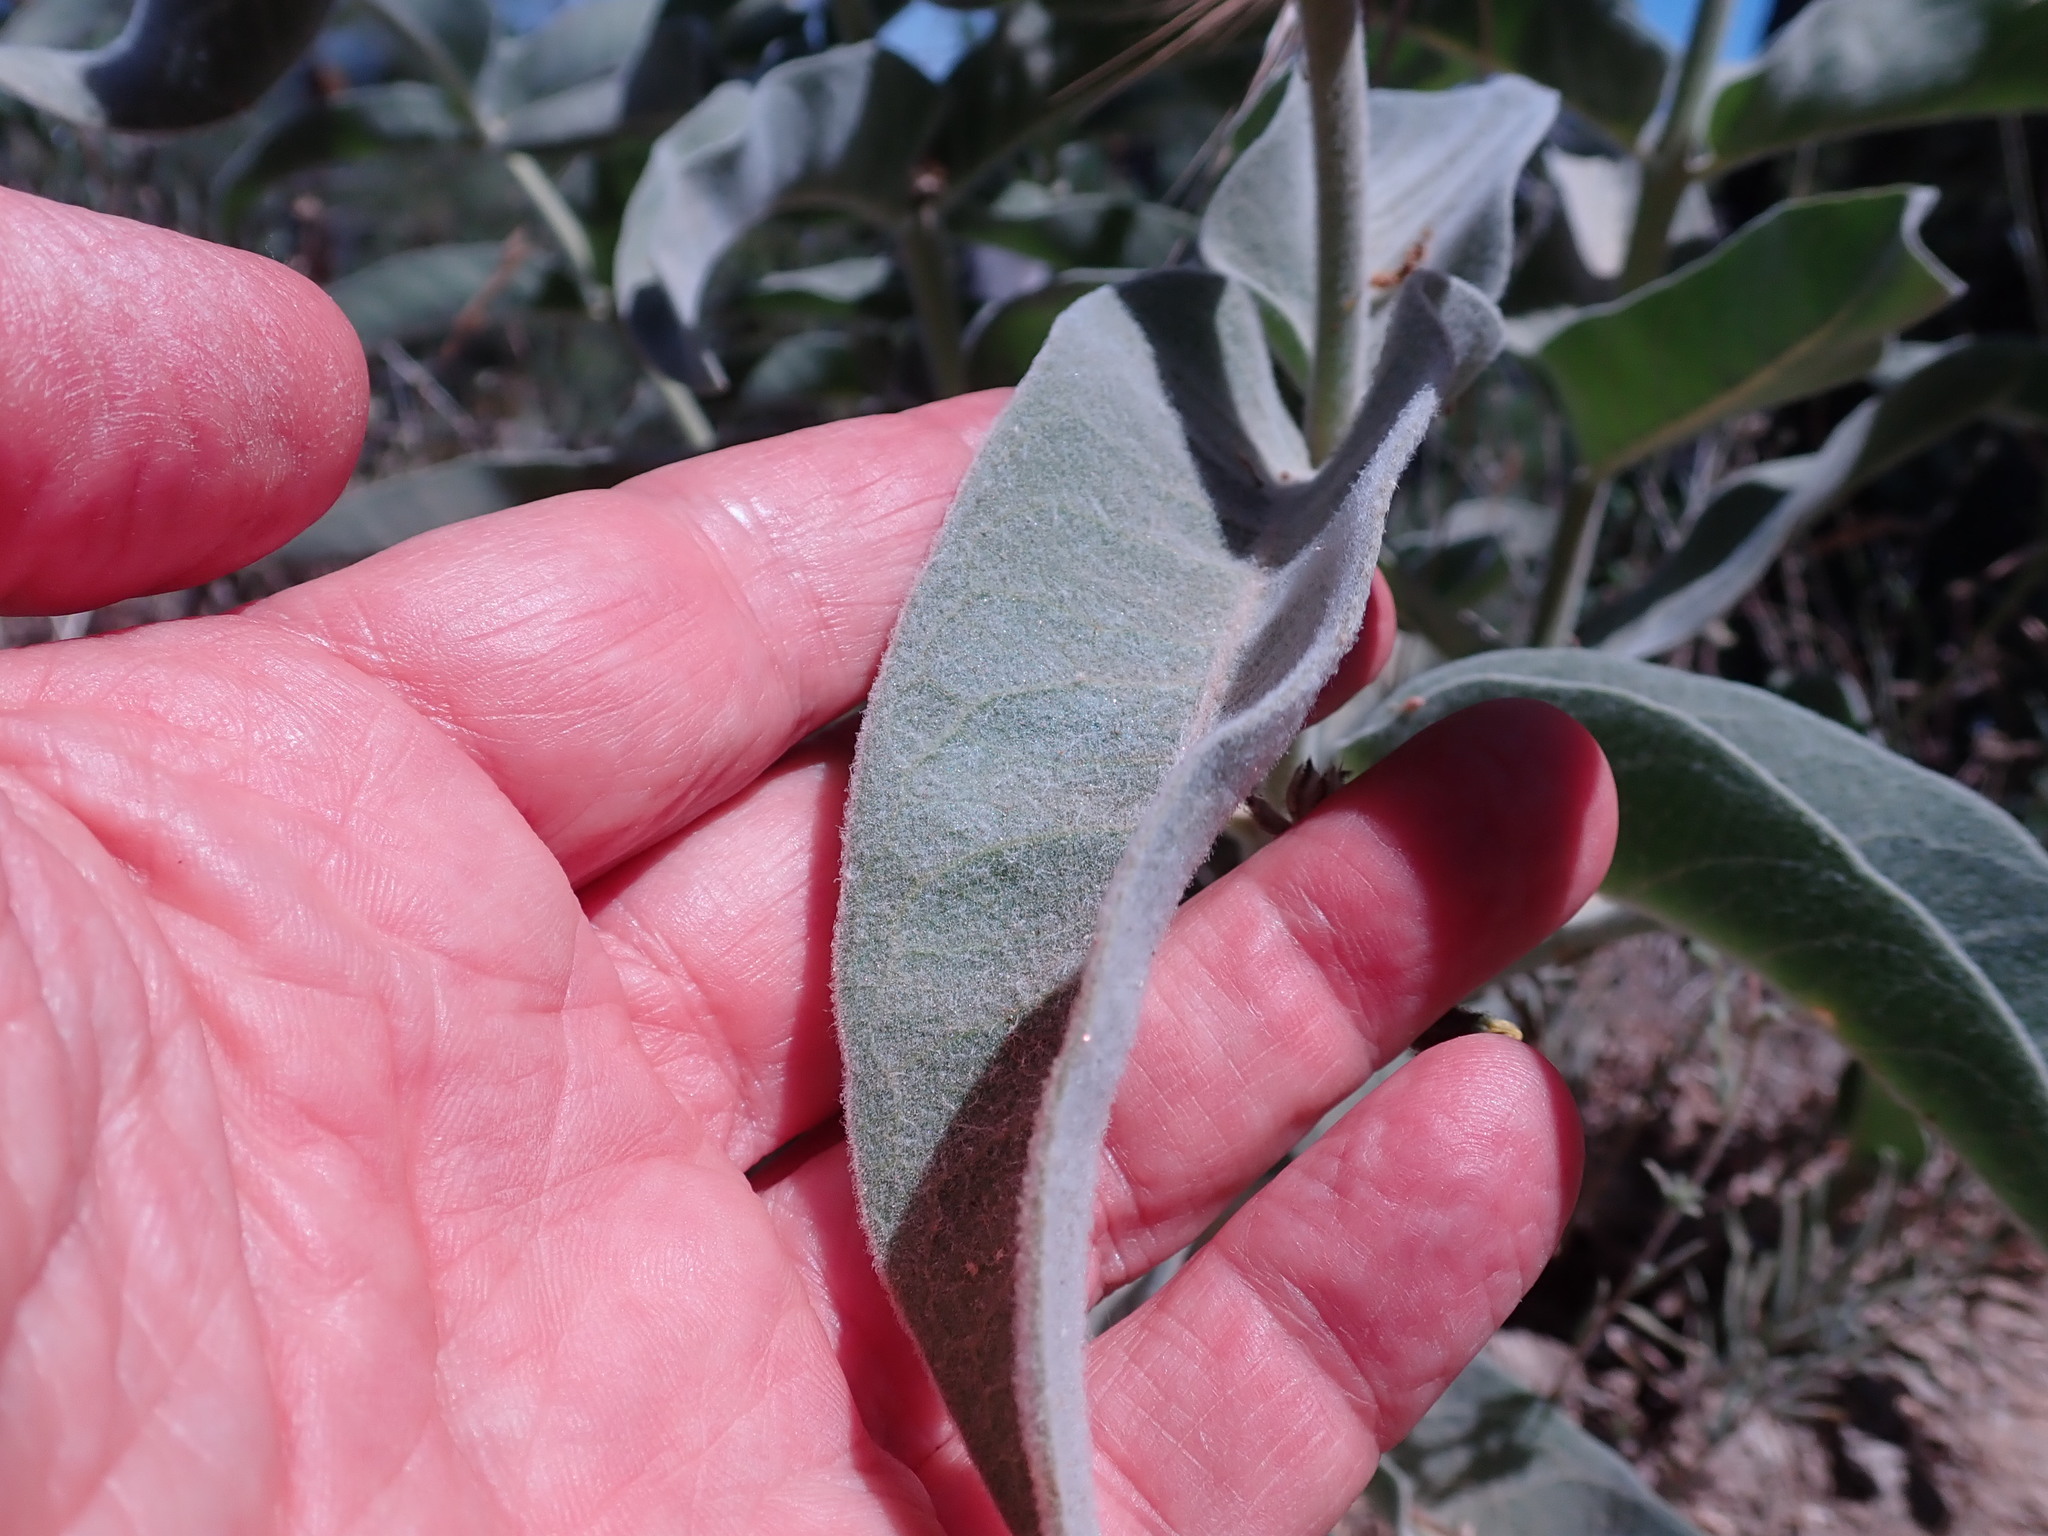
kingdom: Plantae
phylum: Tracheophyta
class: Magnoliopsida
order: Gentianales
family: Apocynaceae
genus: Asclepias
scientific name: Asclepias eriocarpa
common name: Indian milkweed
